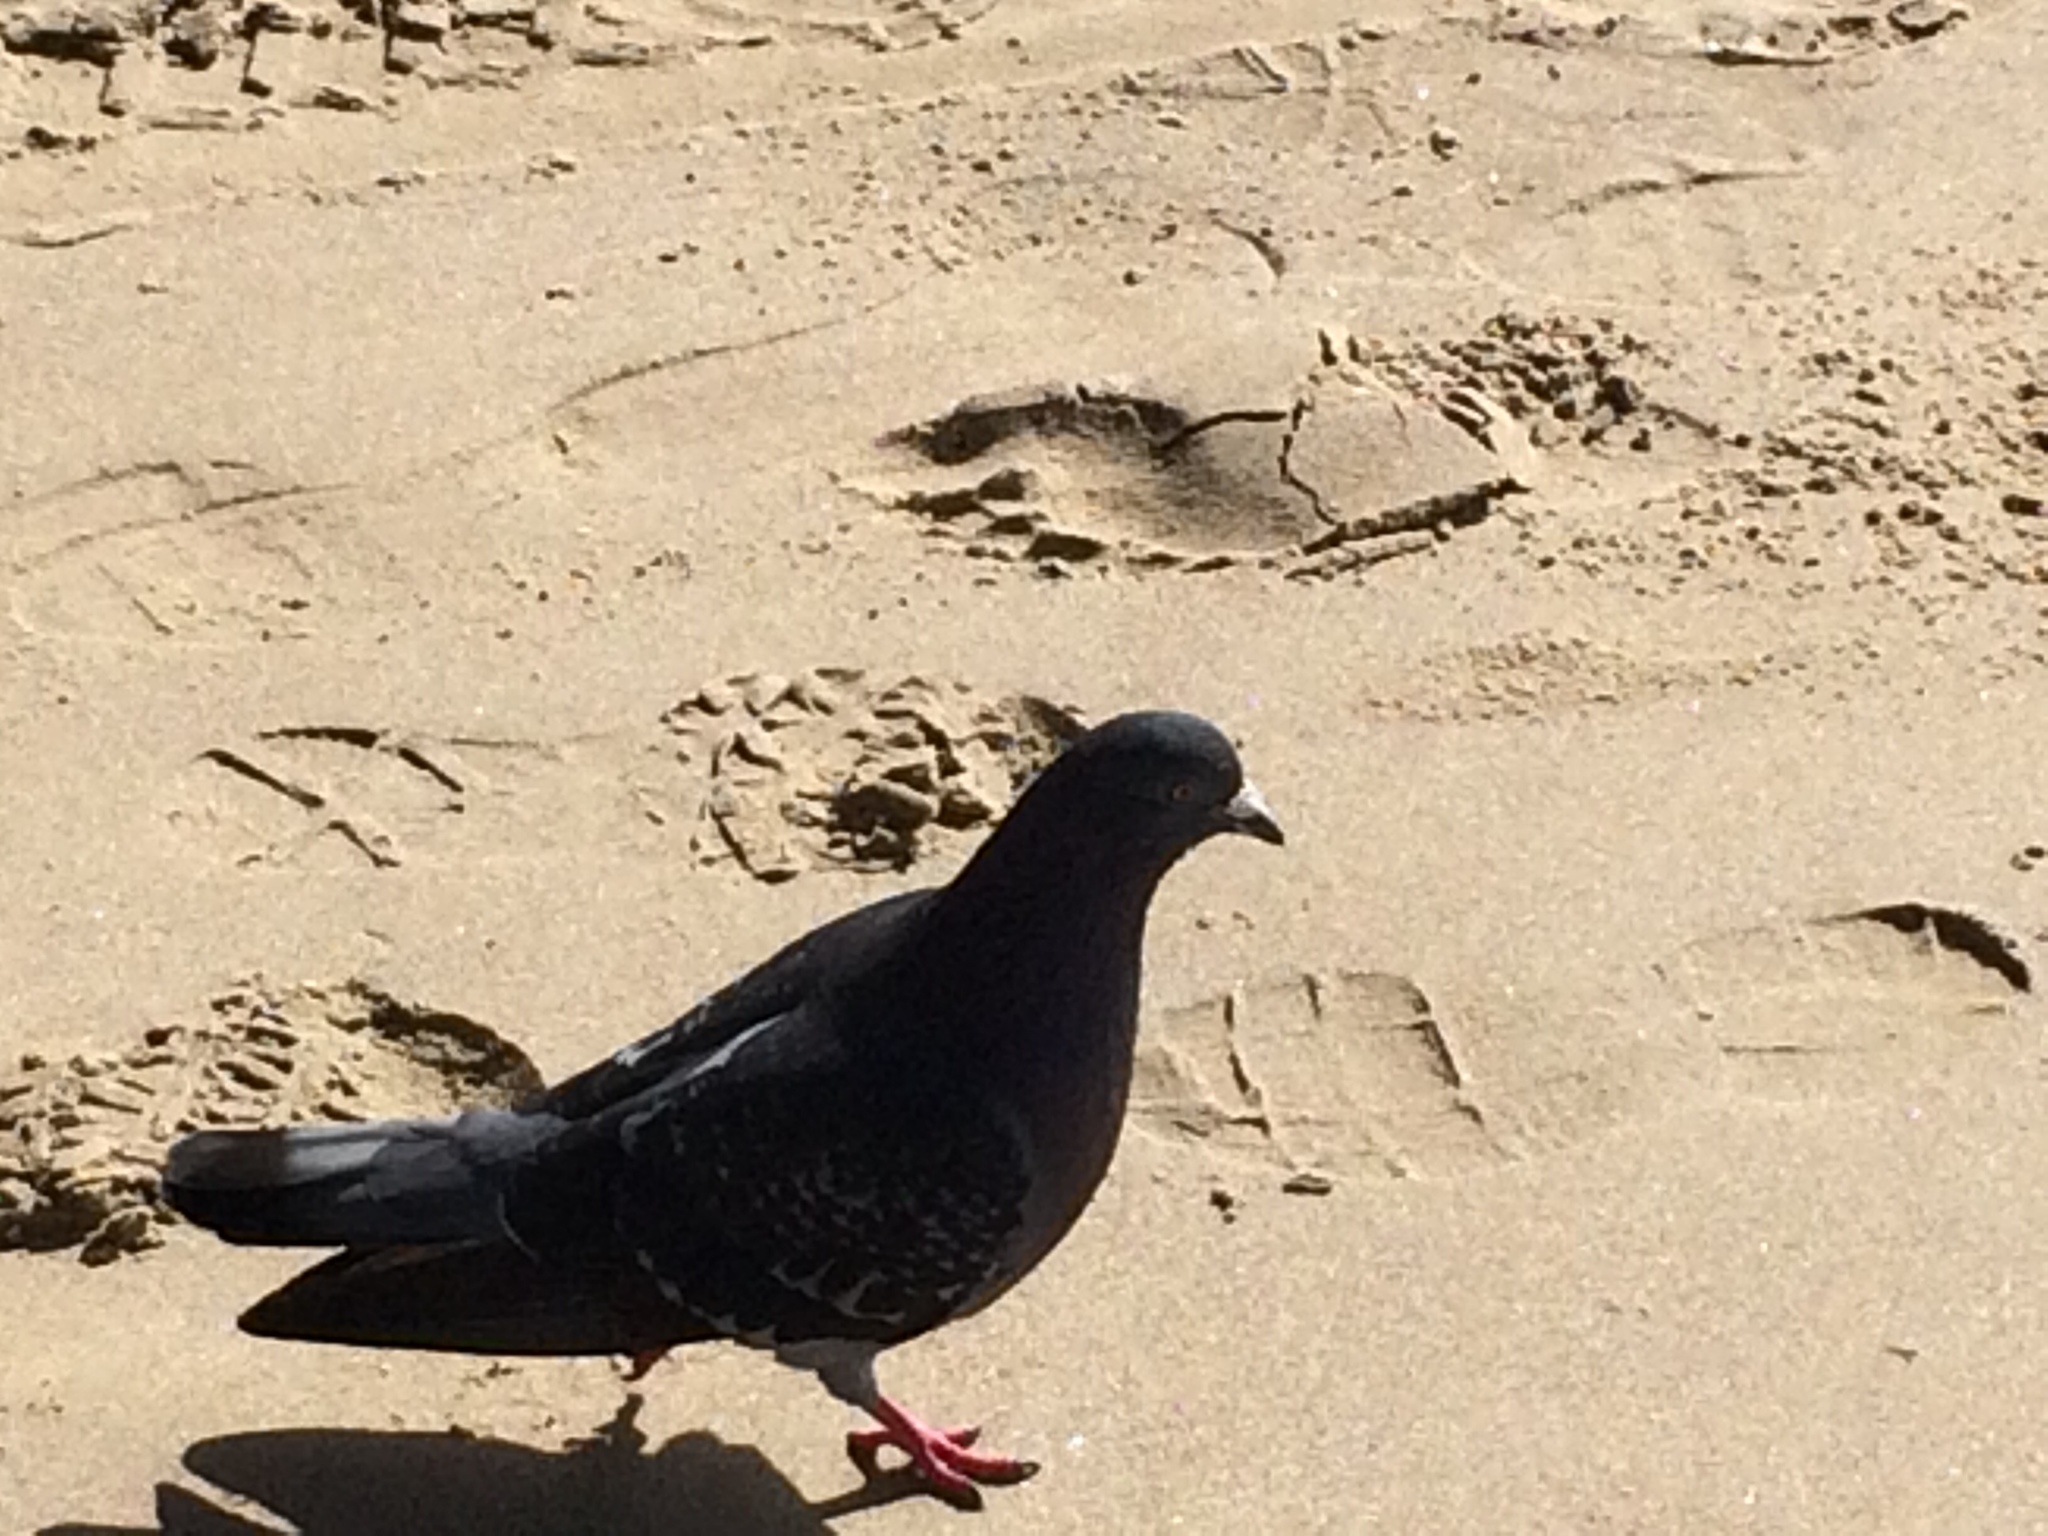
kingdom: Animalia
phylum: Chordata
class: Aves
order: Columbiformes
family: Columbidae
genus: Columba
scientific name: Columba livia
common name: Rock pigeon
